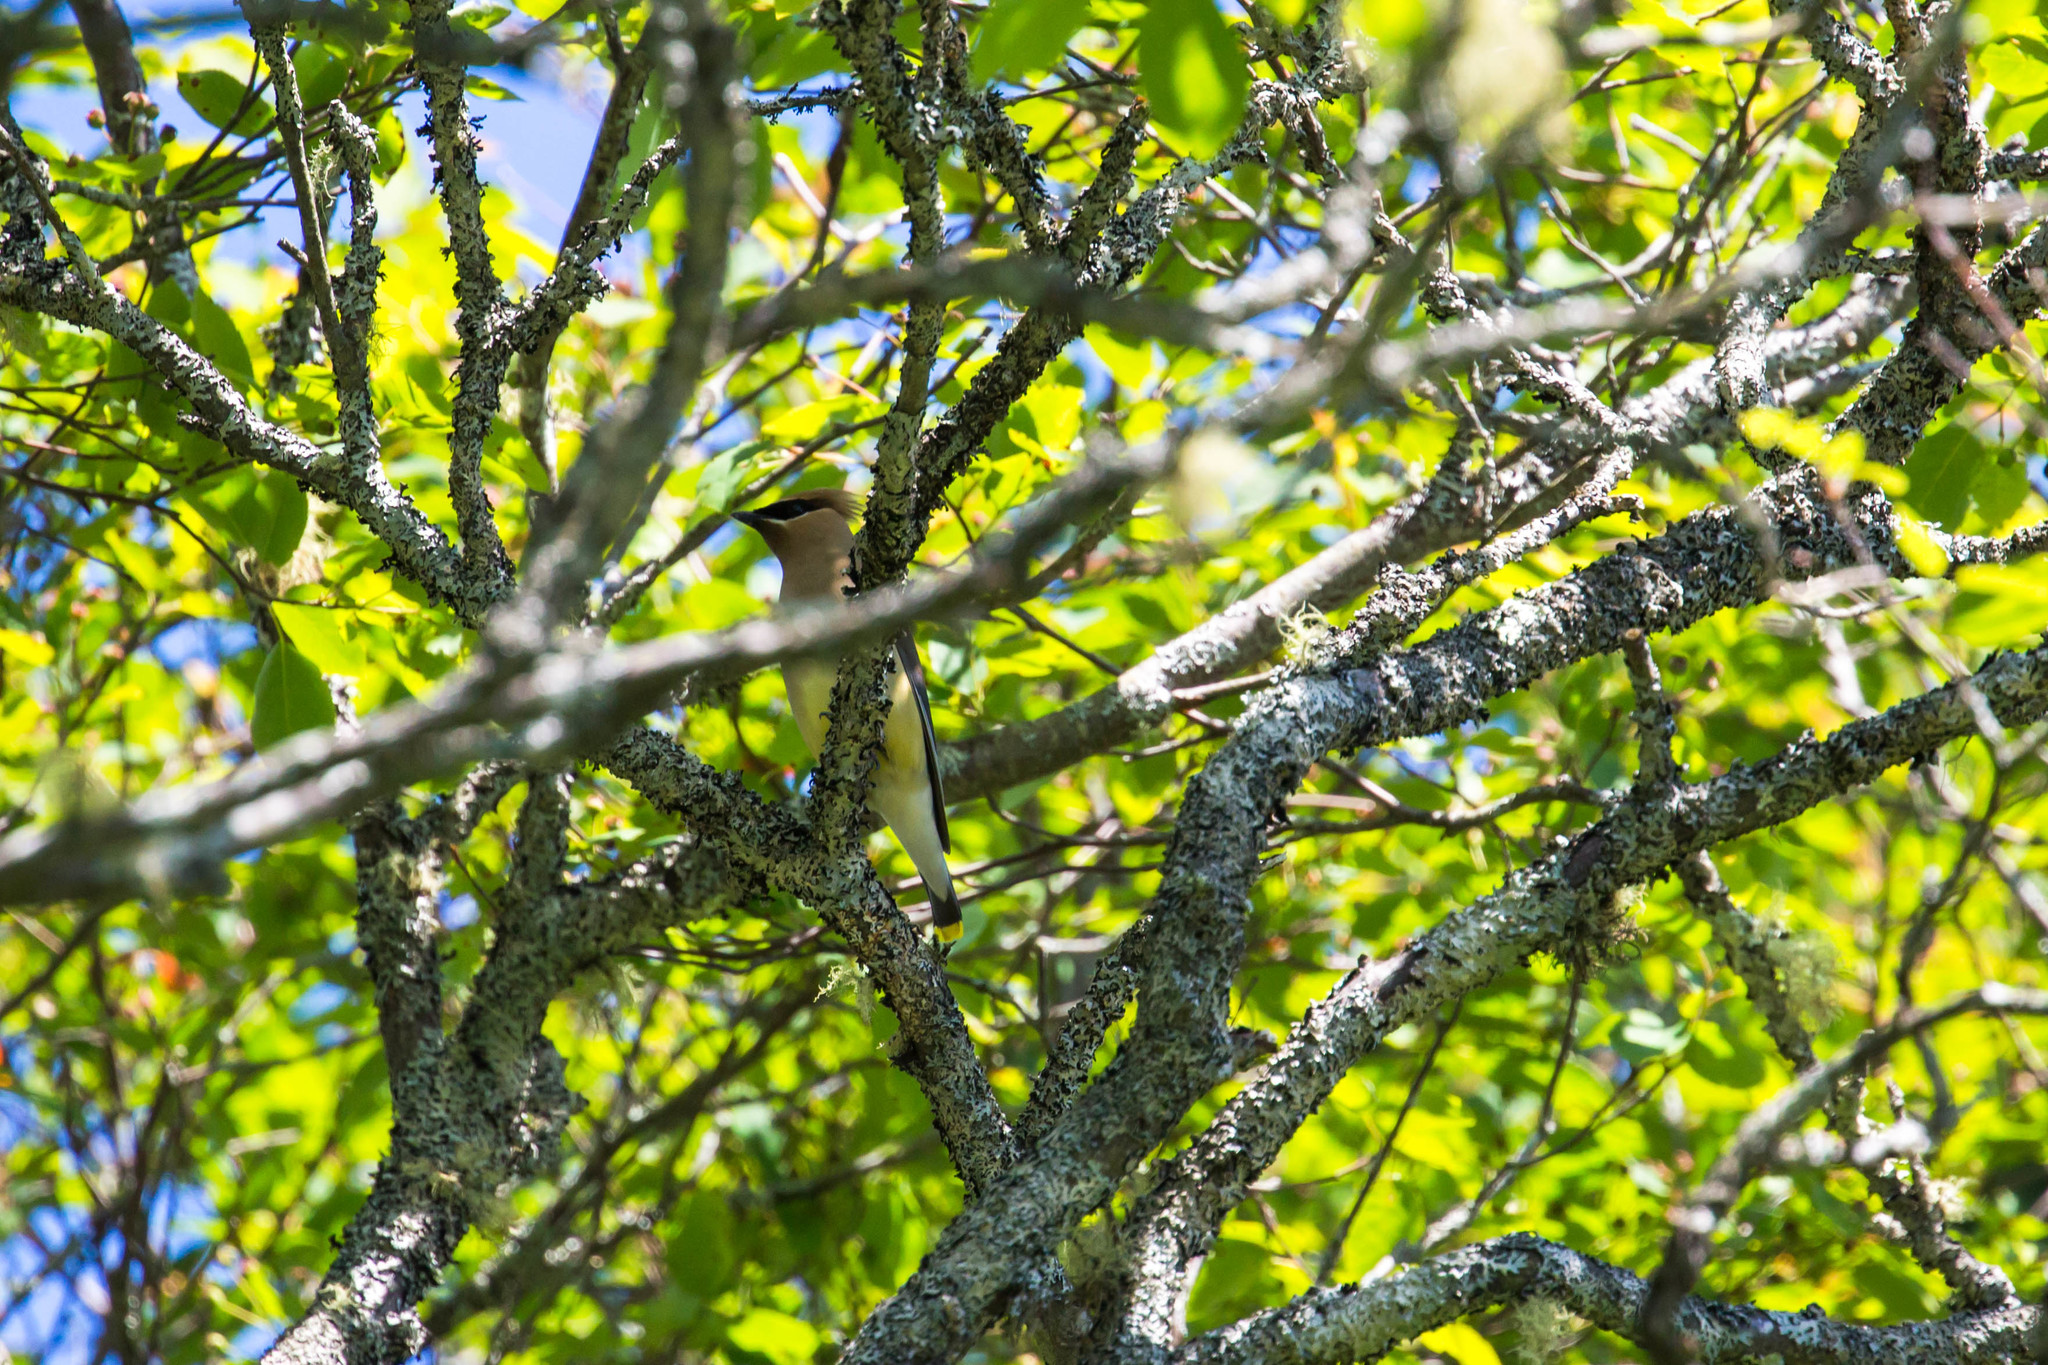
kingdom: Animalia
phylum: Chordata
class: Aves
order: Passeriformes
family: Bombycillidae
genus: Bombycilla
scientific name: Bombycilla cedrorum
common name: Cedar waxwing
